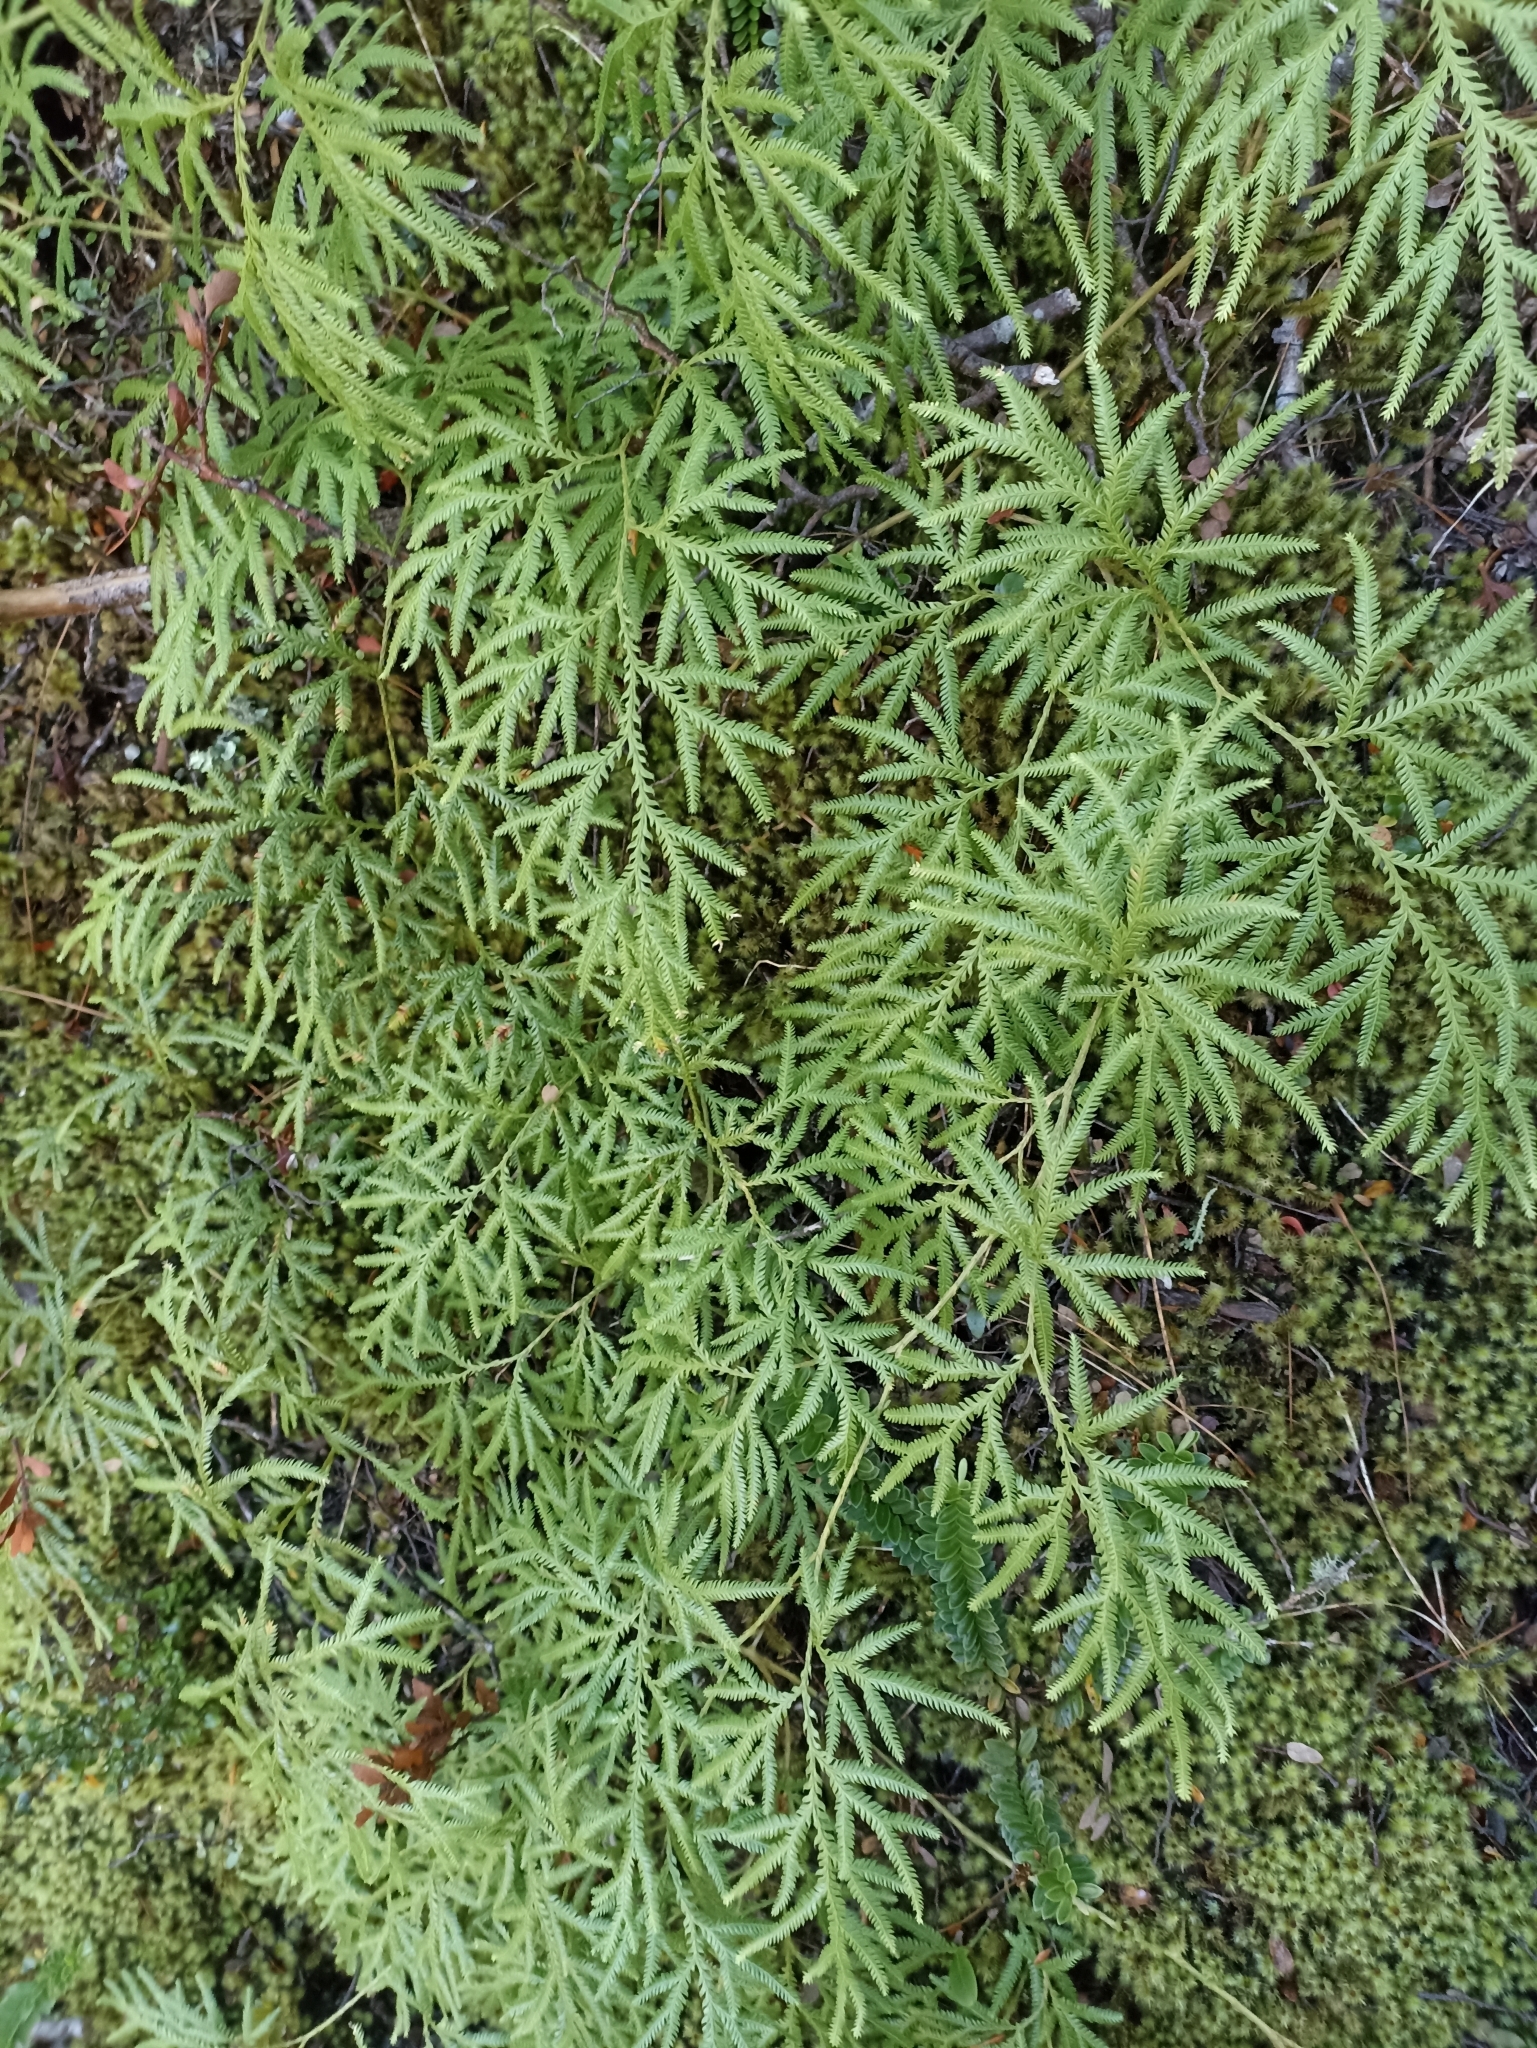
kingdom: Plantae
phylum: Tracheophyta
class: Lycopodiopsida
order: Lycopodiales
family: Lycopodiaceae
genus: Lycopodium
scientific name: Lycopodium volubile
